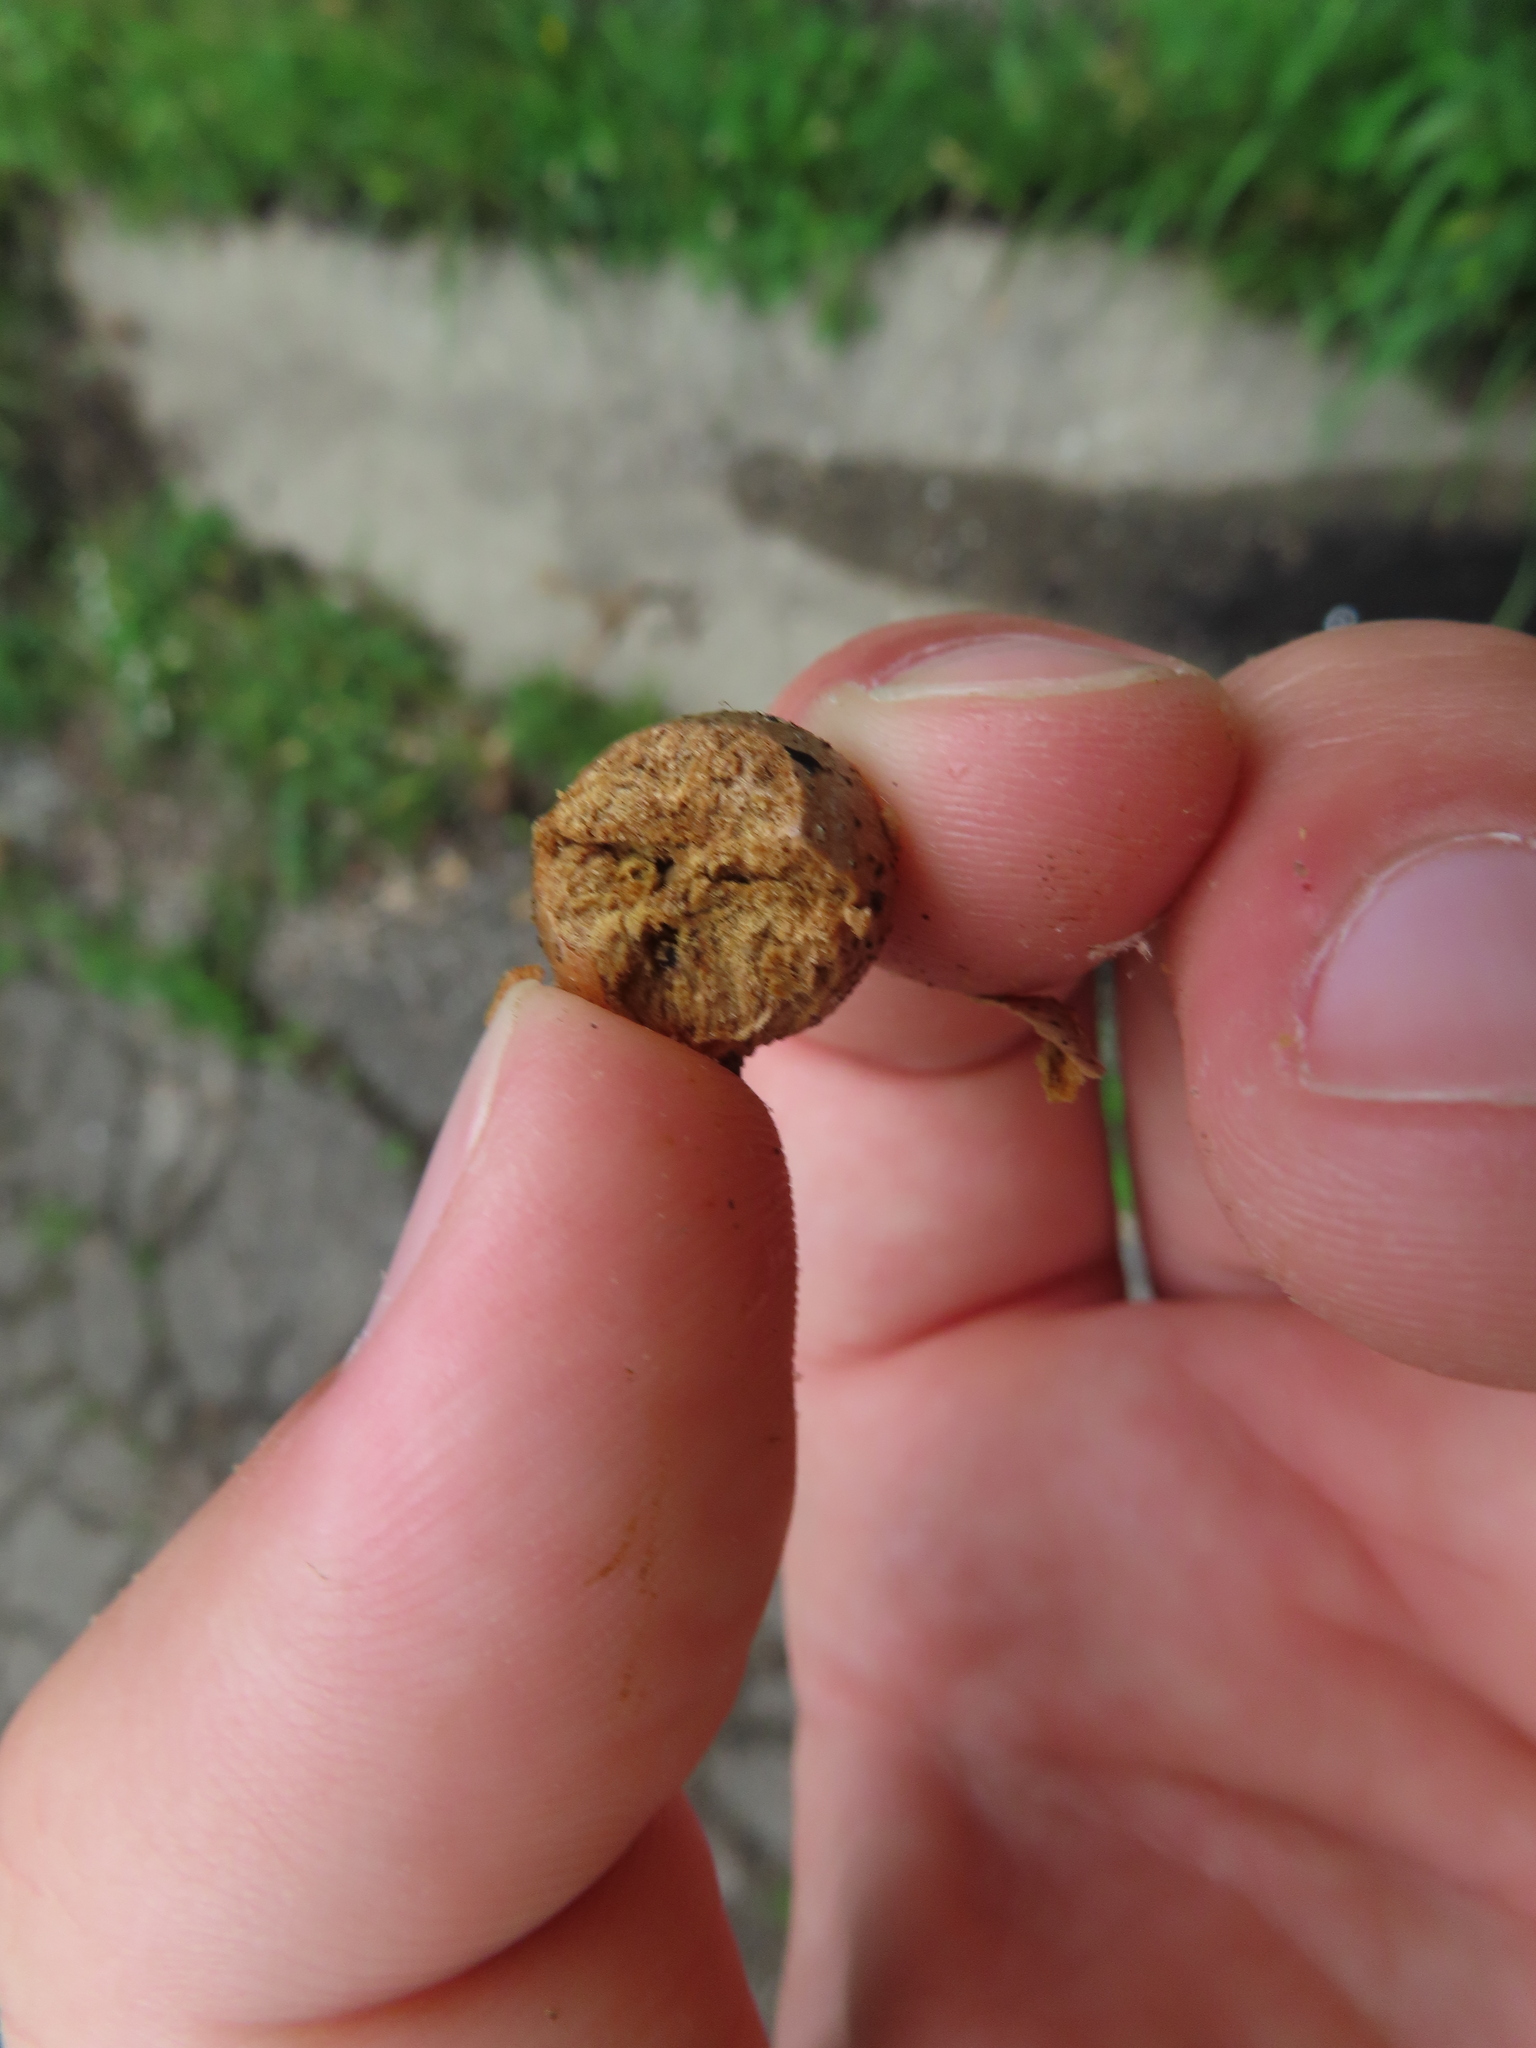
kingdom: Animalia
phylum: Arthropoda
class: Insecta
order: Hymenoptera
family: Cynipidae
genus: Disholcaspis
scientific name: Disholcaspis quercusglobulus
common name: Round bullet gall wasp
